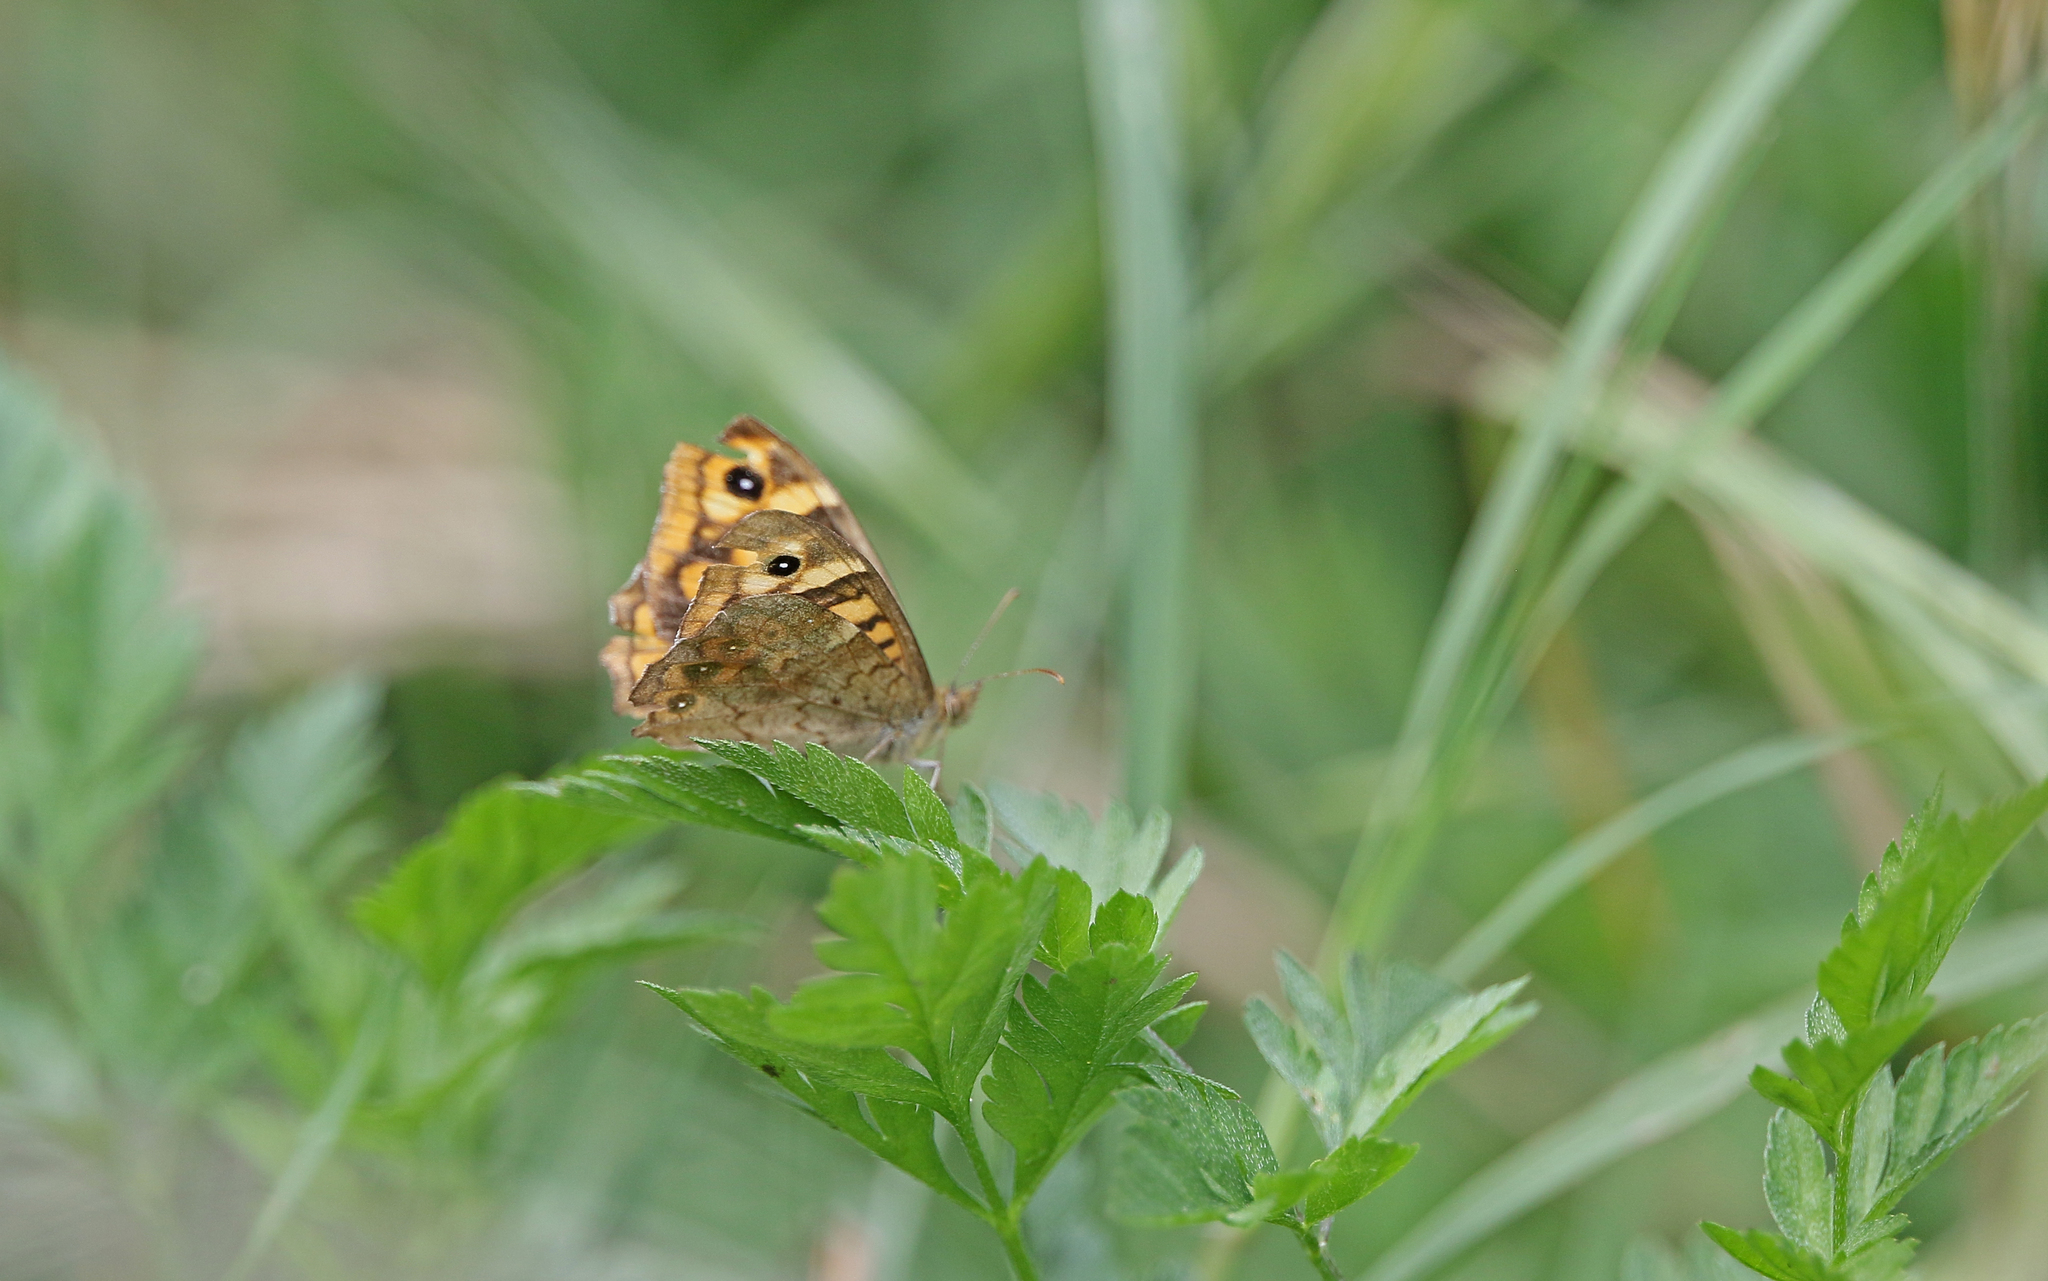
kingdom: Animalia
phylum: Arthropoda
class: Insecta
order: Lepidoptera
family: Nymphalidae
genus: Pararge
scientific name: Pararge aegeria
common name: Speckled wood
